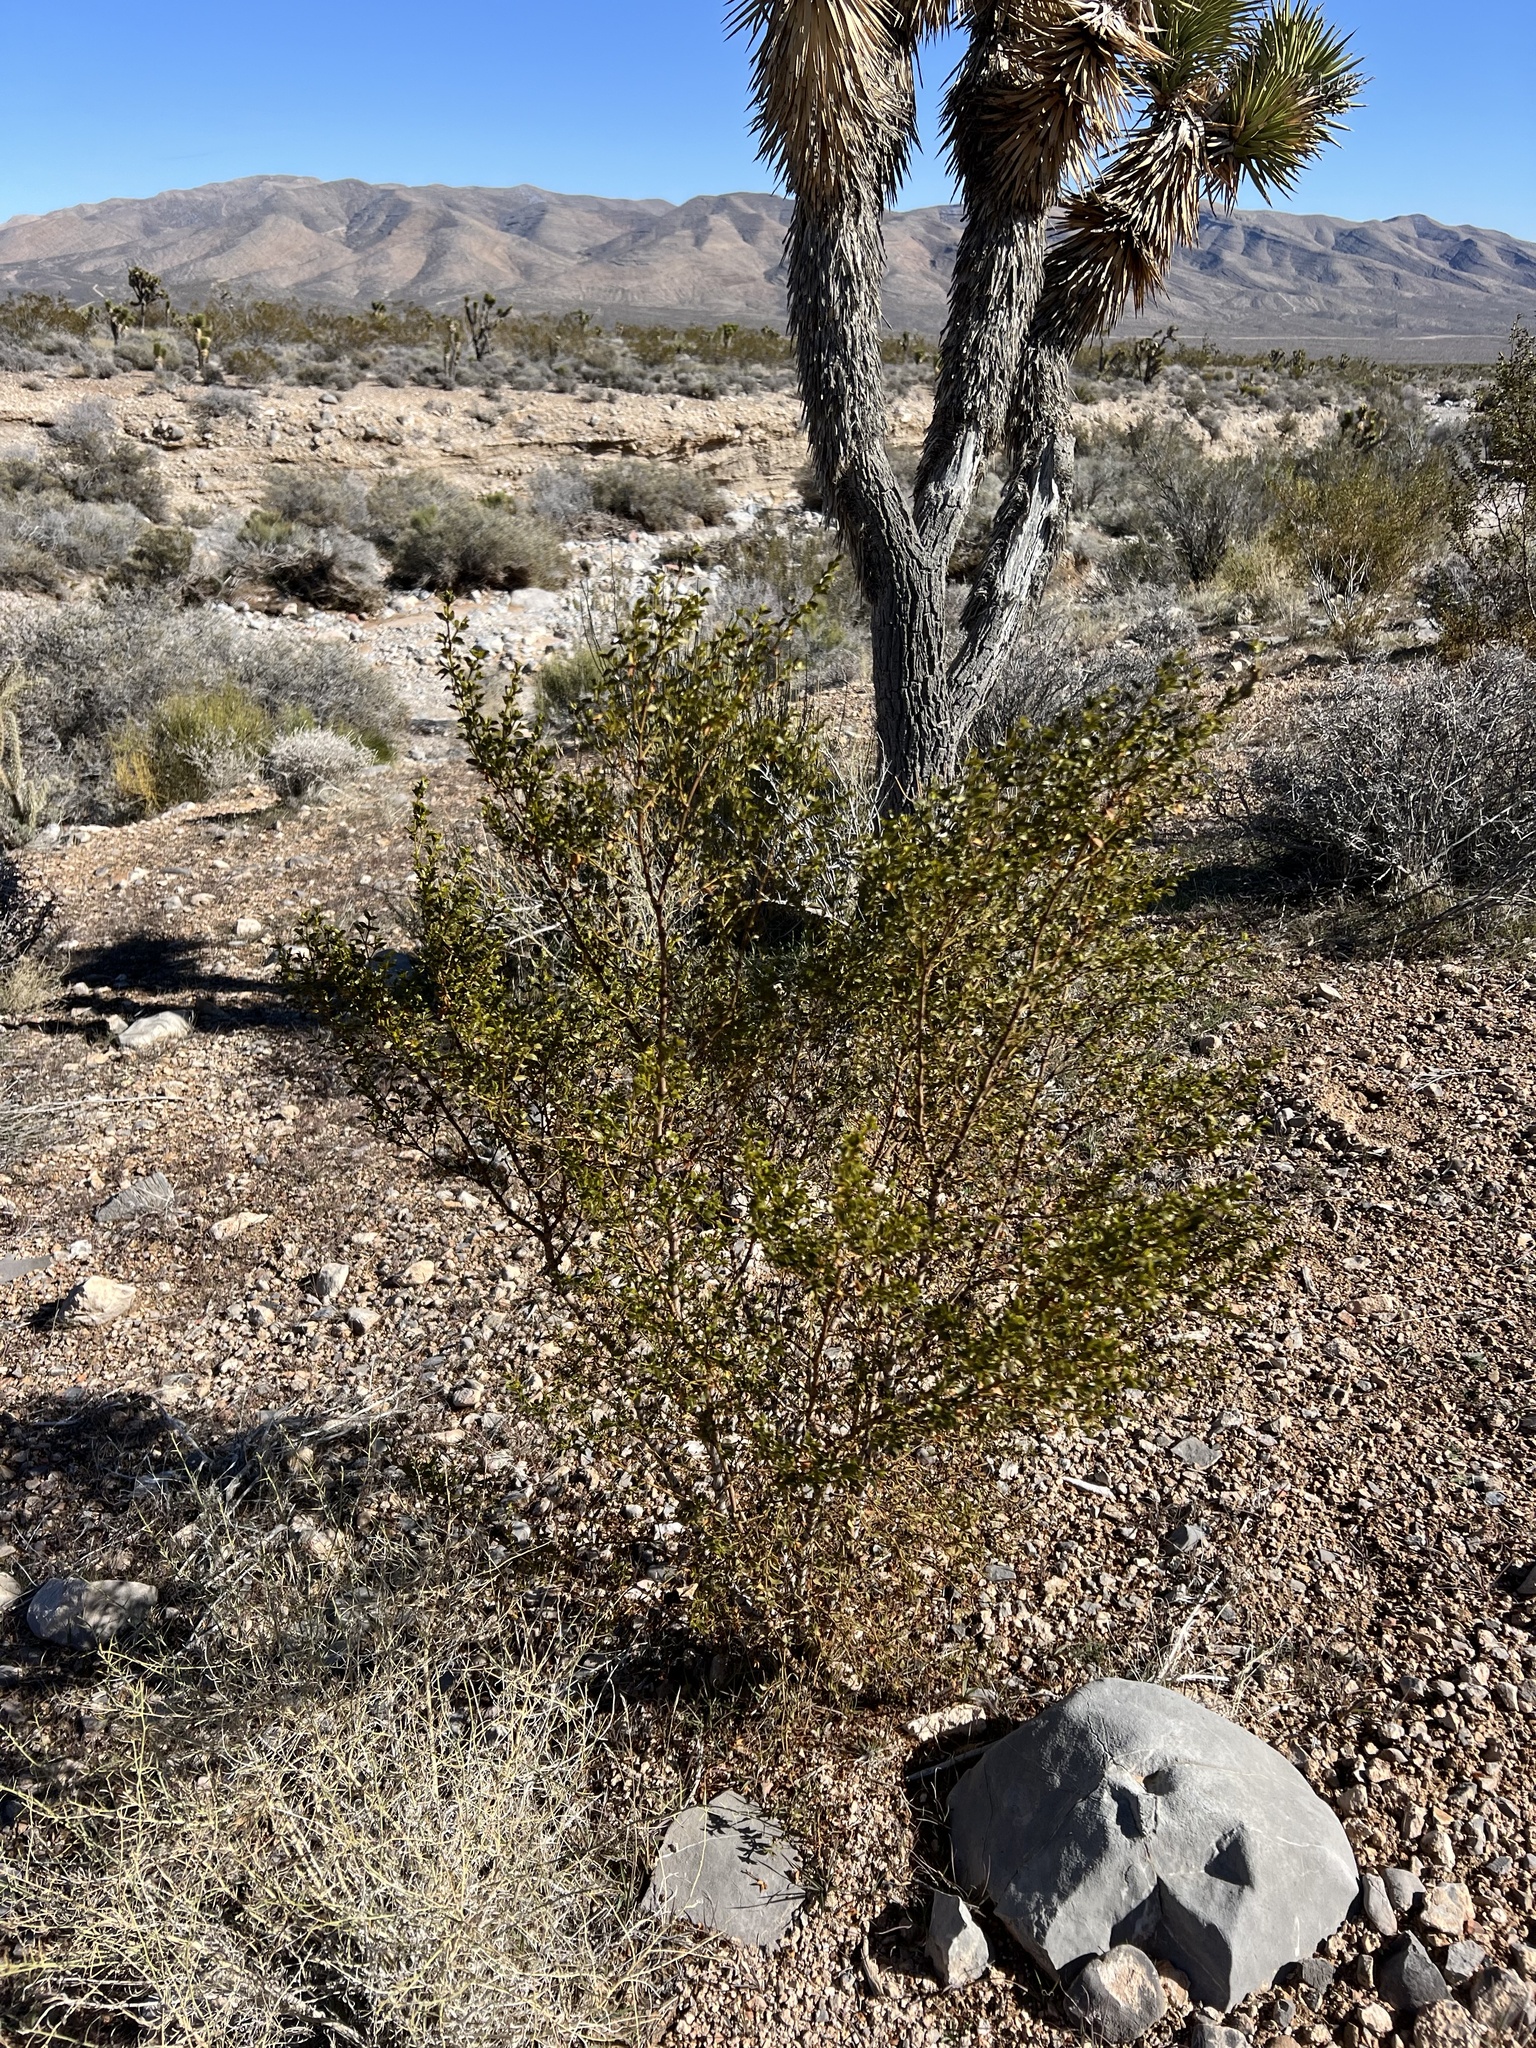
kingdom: Plantae
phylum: Tracheophyta
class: Magnoliopsida
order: Zygophyllales
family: Zygophyllaceae
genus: Larrea
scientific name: Larrea tridentata
